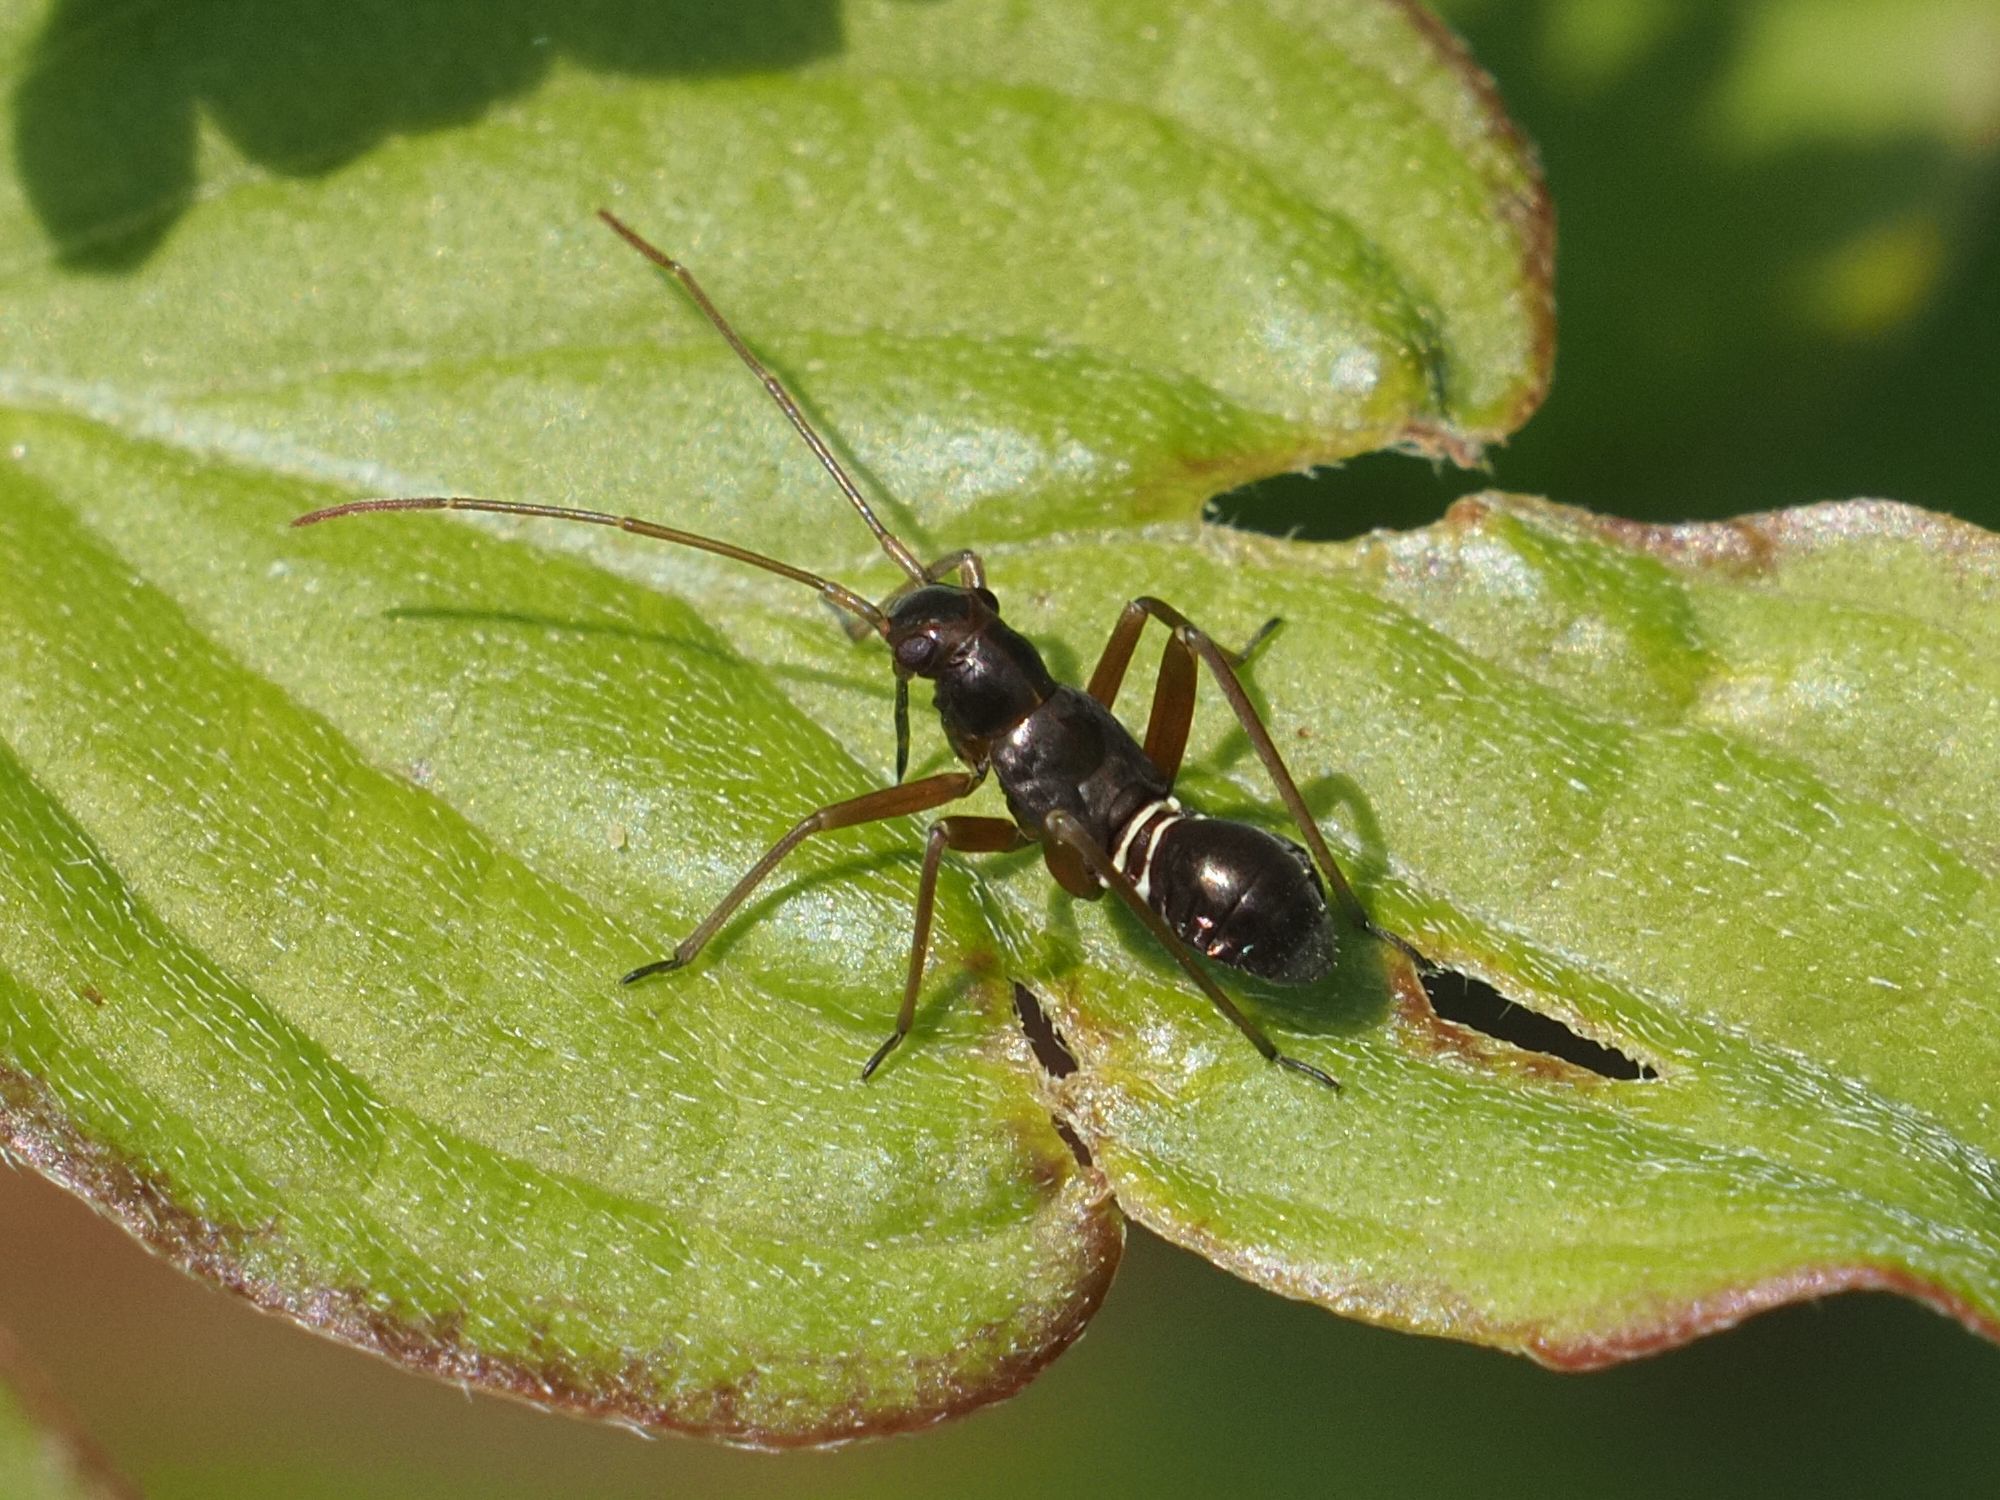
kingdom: Animalia
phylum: Arthropoda
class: Insecta
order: Hemiptera
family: Miridae
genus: Miris
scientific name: Miris striatus
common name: Fine streaked bugkin
